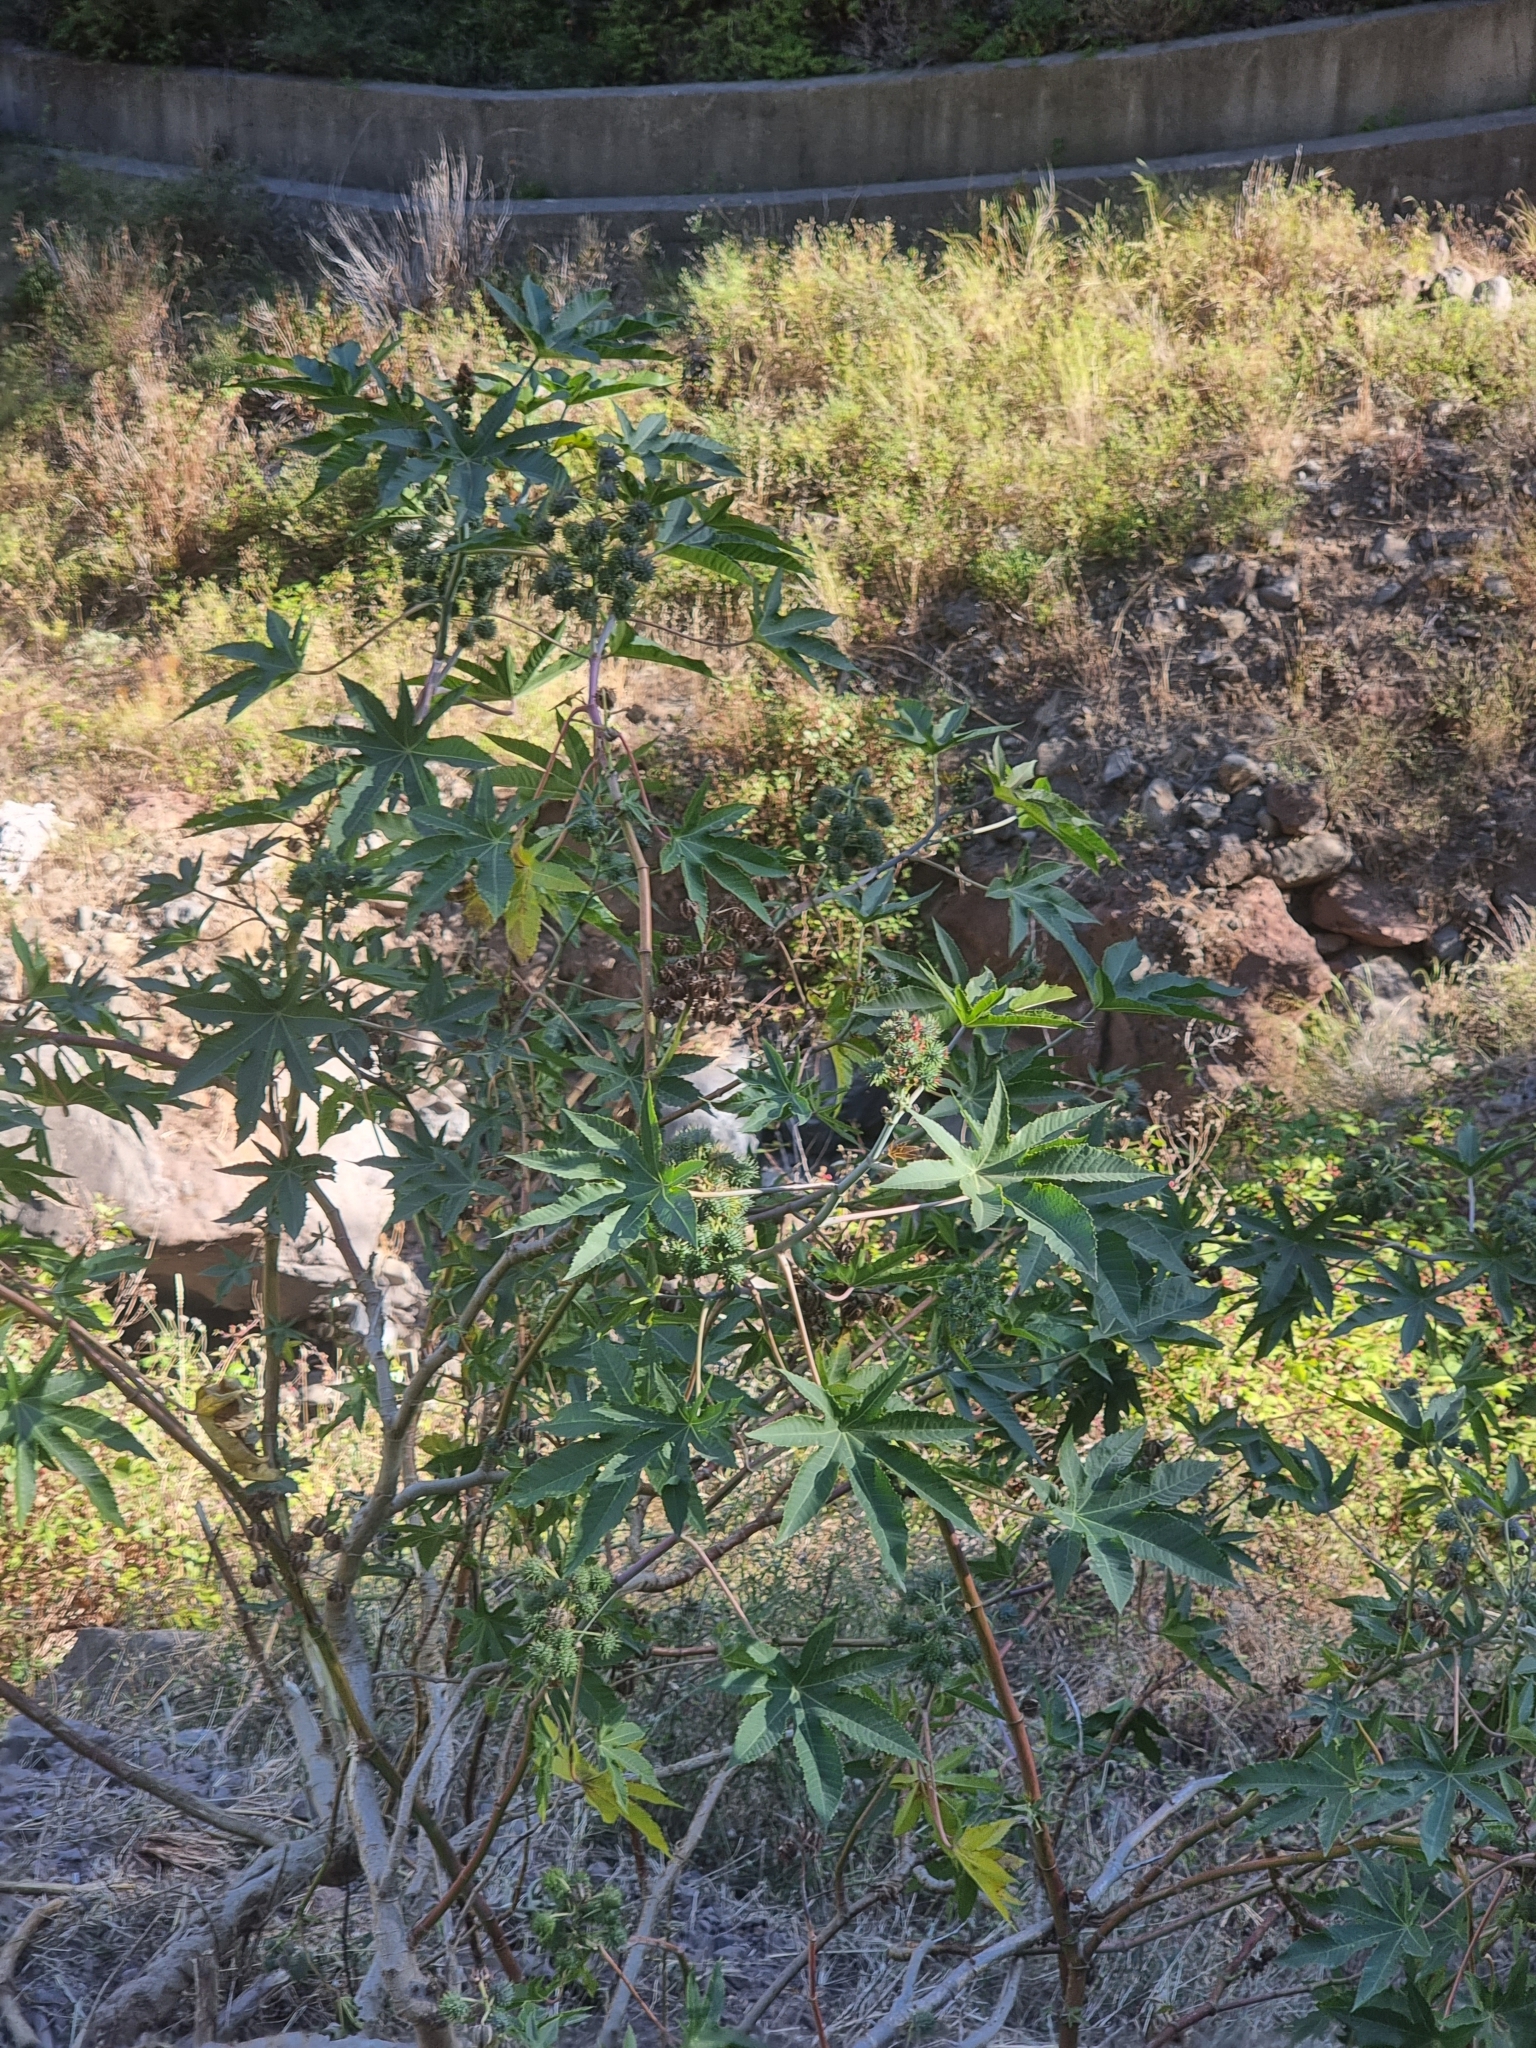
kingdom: Plantae
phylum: Tracheophyta
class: Magnoliopsida
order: Malpighiales
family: Euphorbiaceae
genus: Ricinus
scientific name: Ricinus communis
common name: Castor-oil-plant
